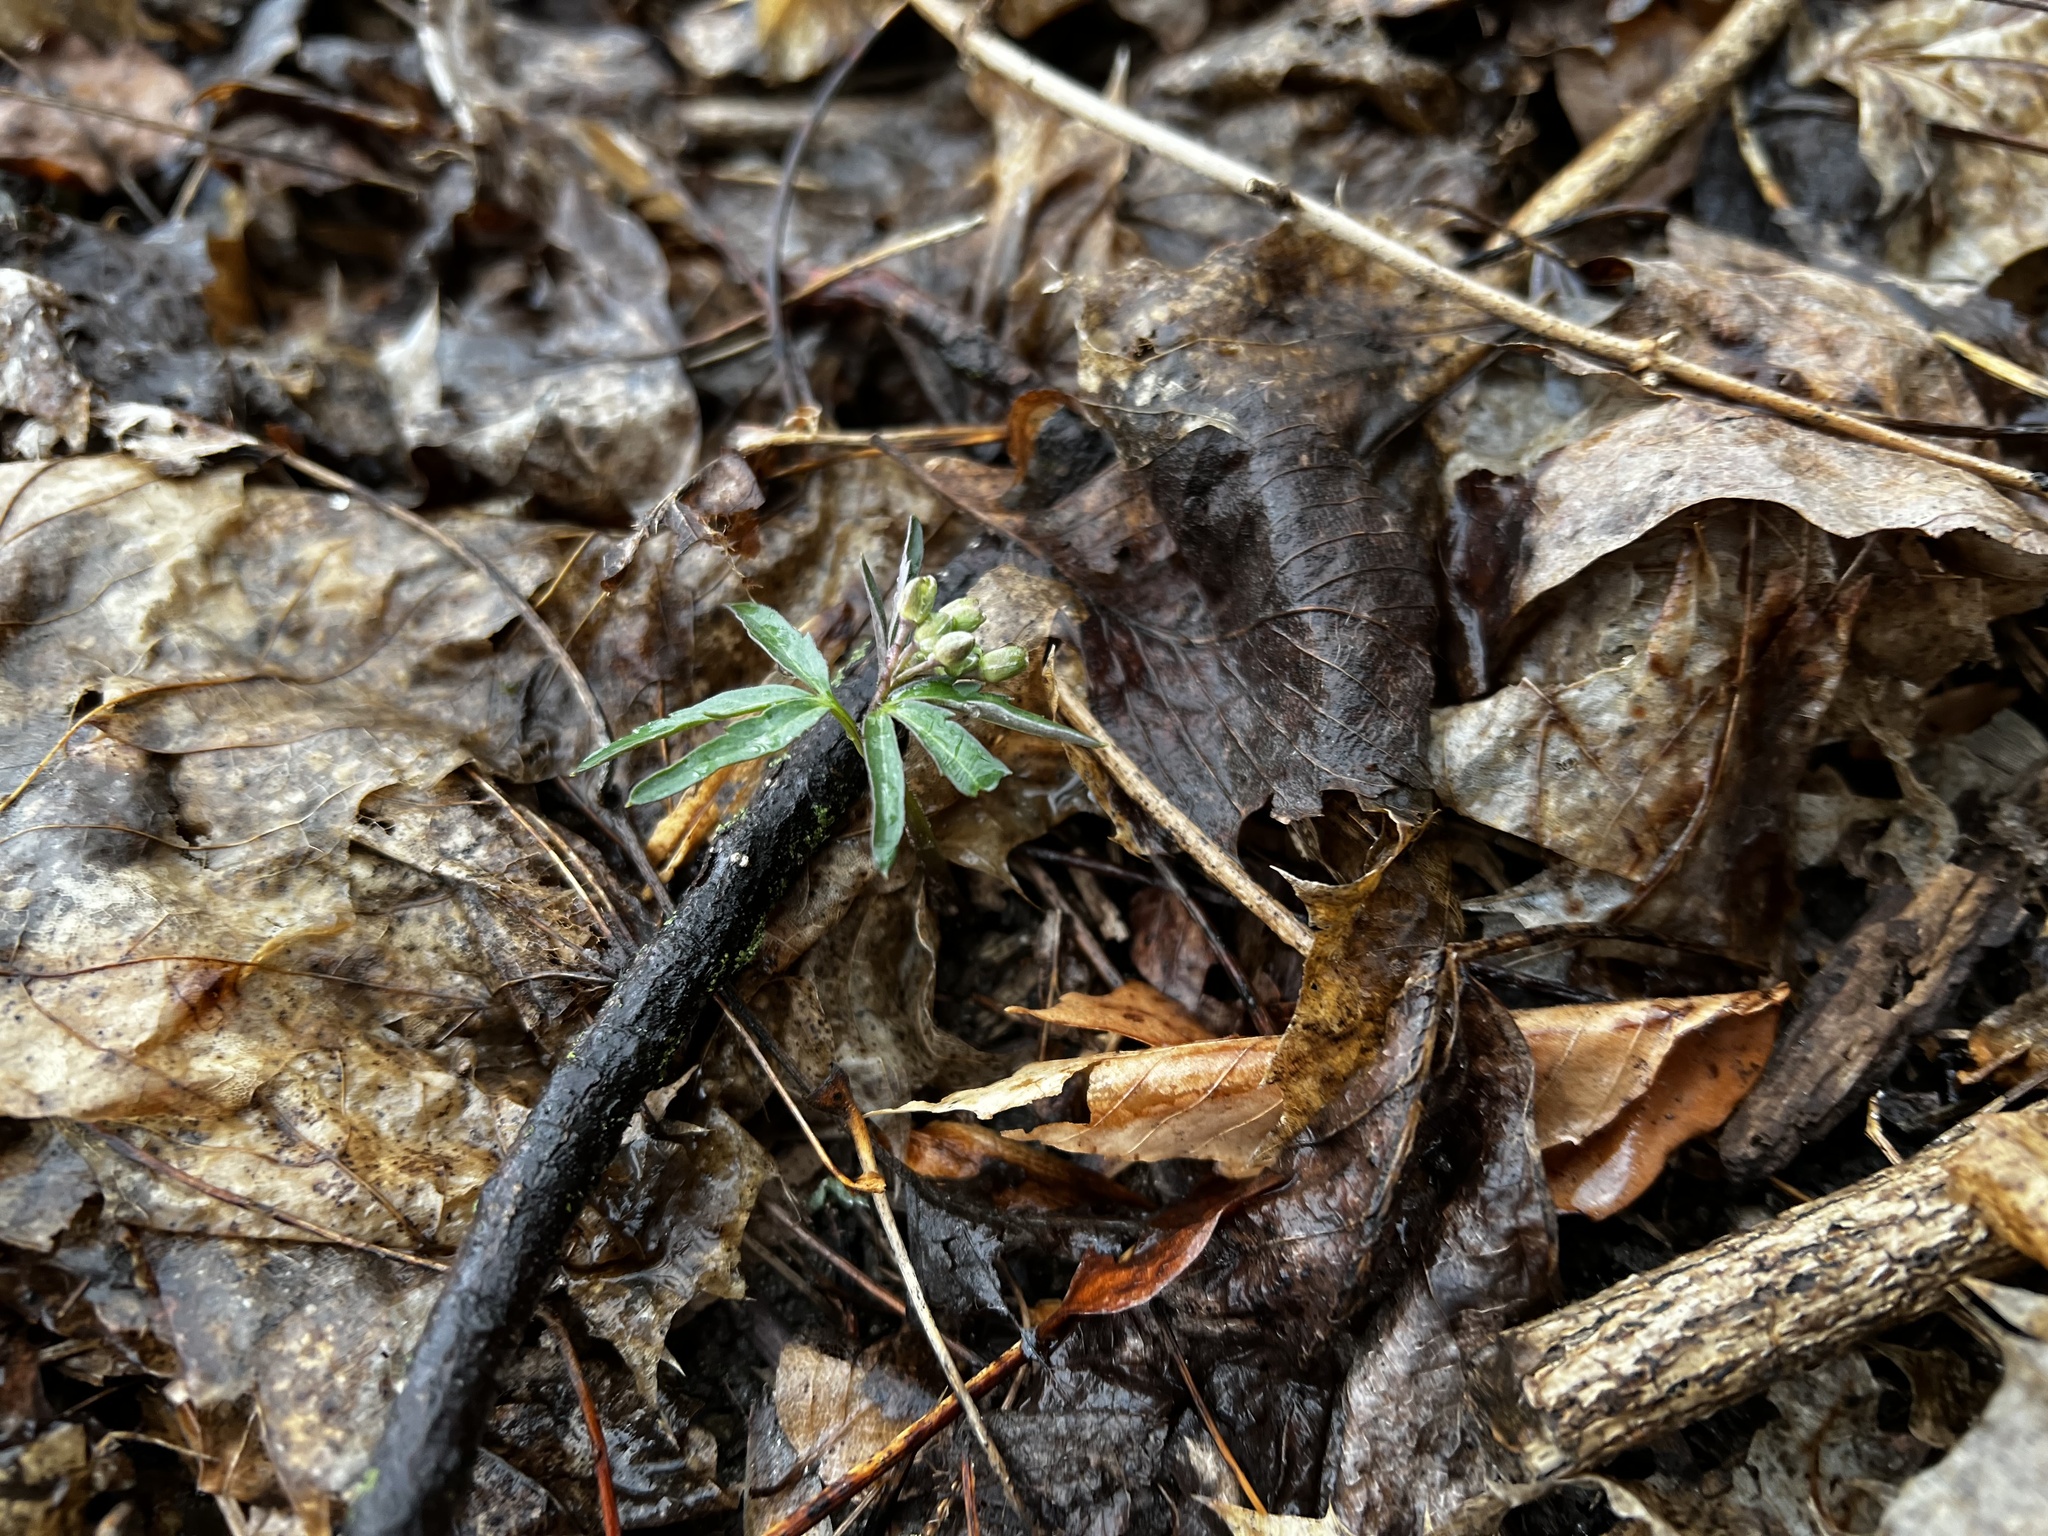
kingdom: Plantae
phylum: Tracheophyta
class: Magnoliopsida
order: Brassicales
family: Brassicaceae
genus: Cardamine
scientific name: Cardamine concatenata
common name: Cut-leaf toothcup
